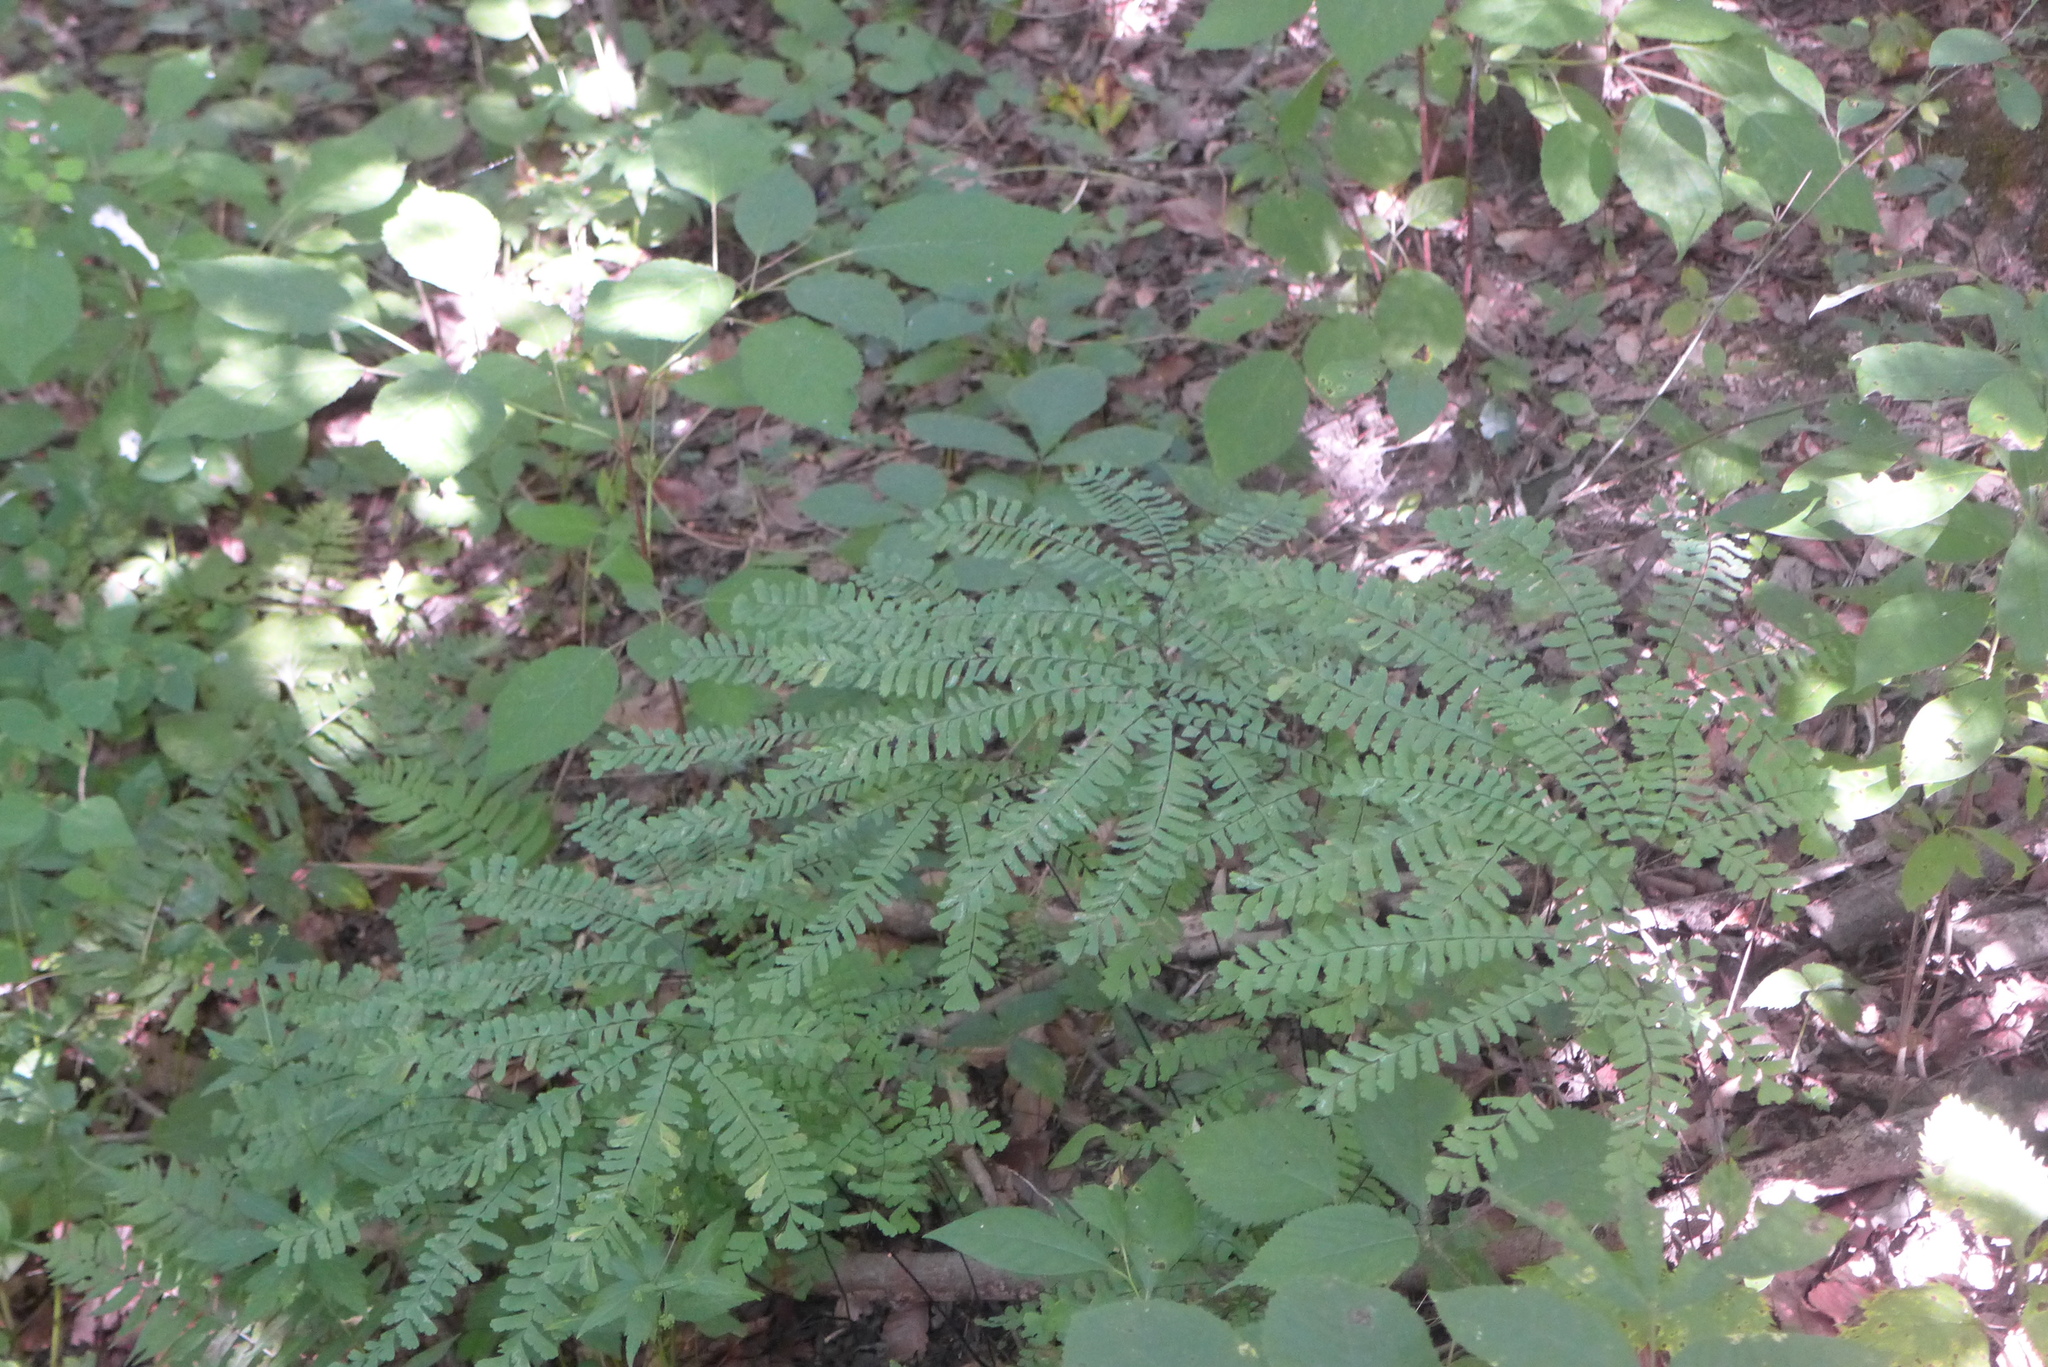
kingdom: Plantae
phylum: Tracheophyta
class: Polypodiopsida
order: Polypodiales
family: Pteridaceae
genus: Adiantum
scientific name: Adiantum pedatum
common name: Five-finger fern
